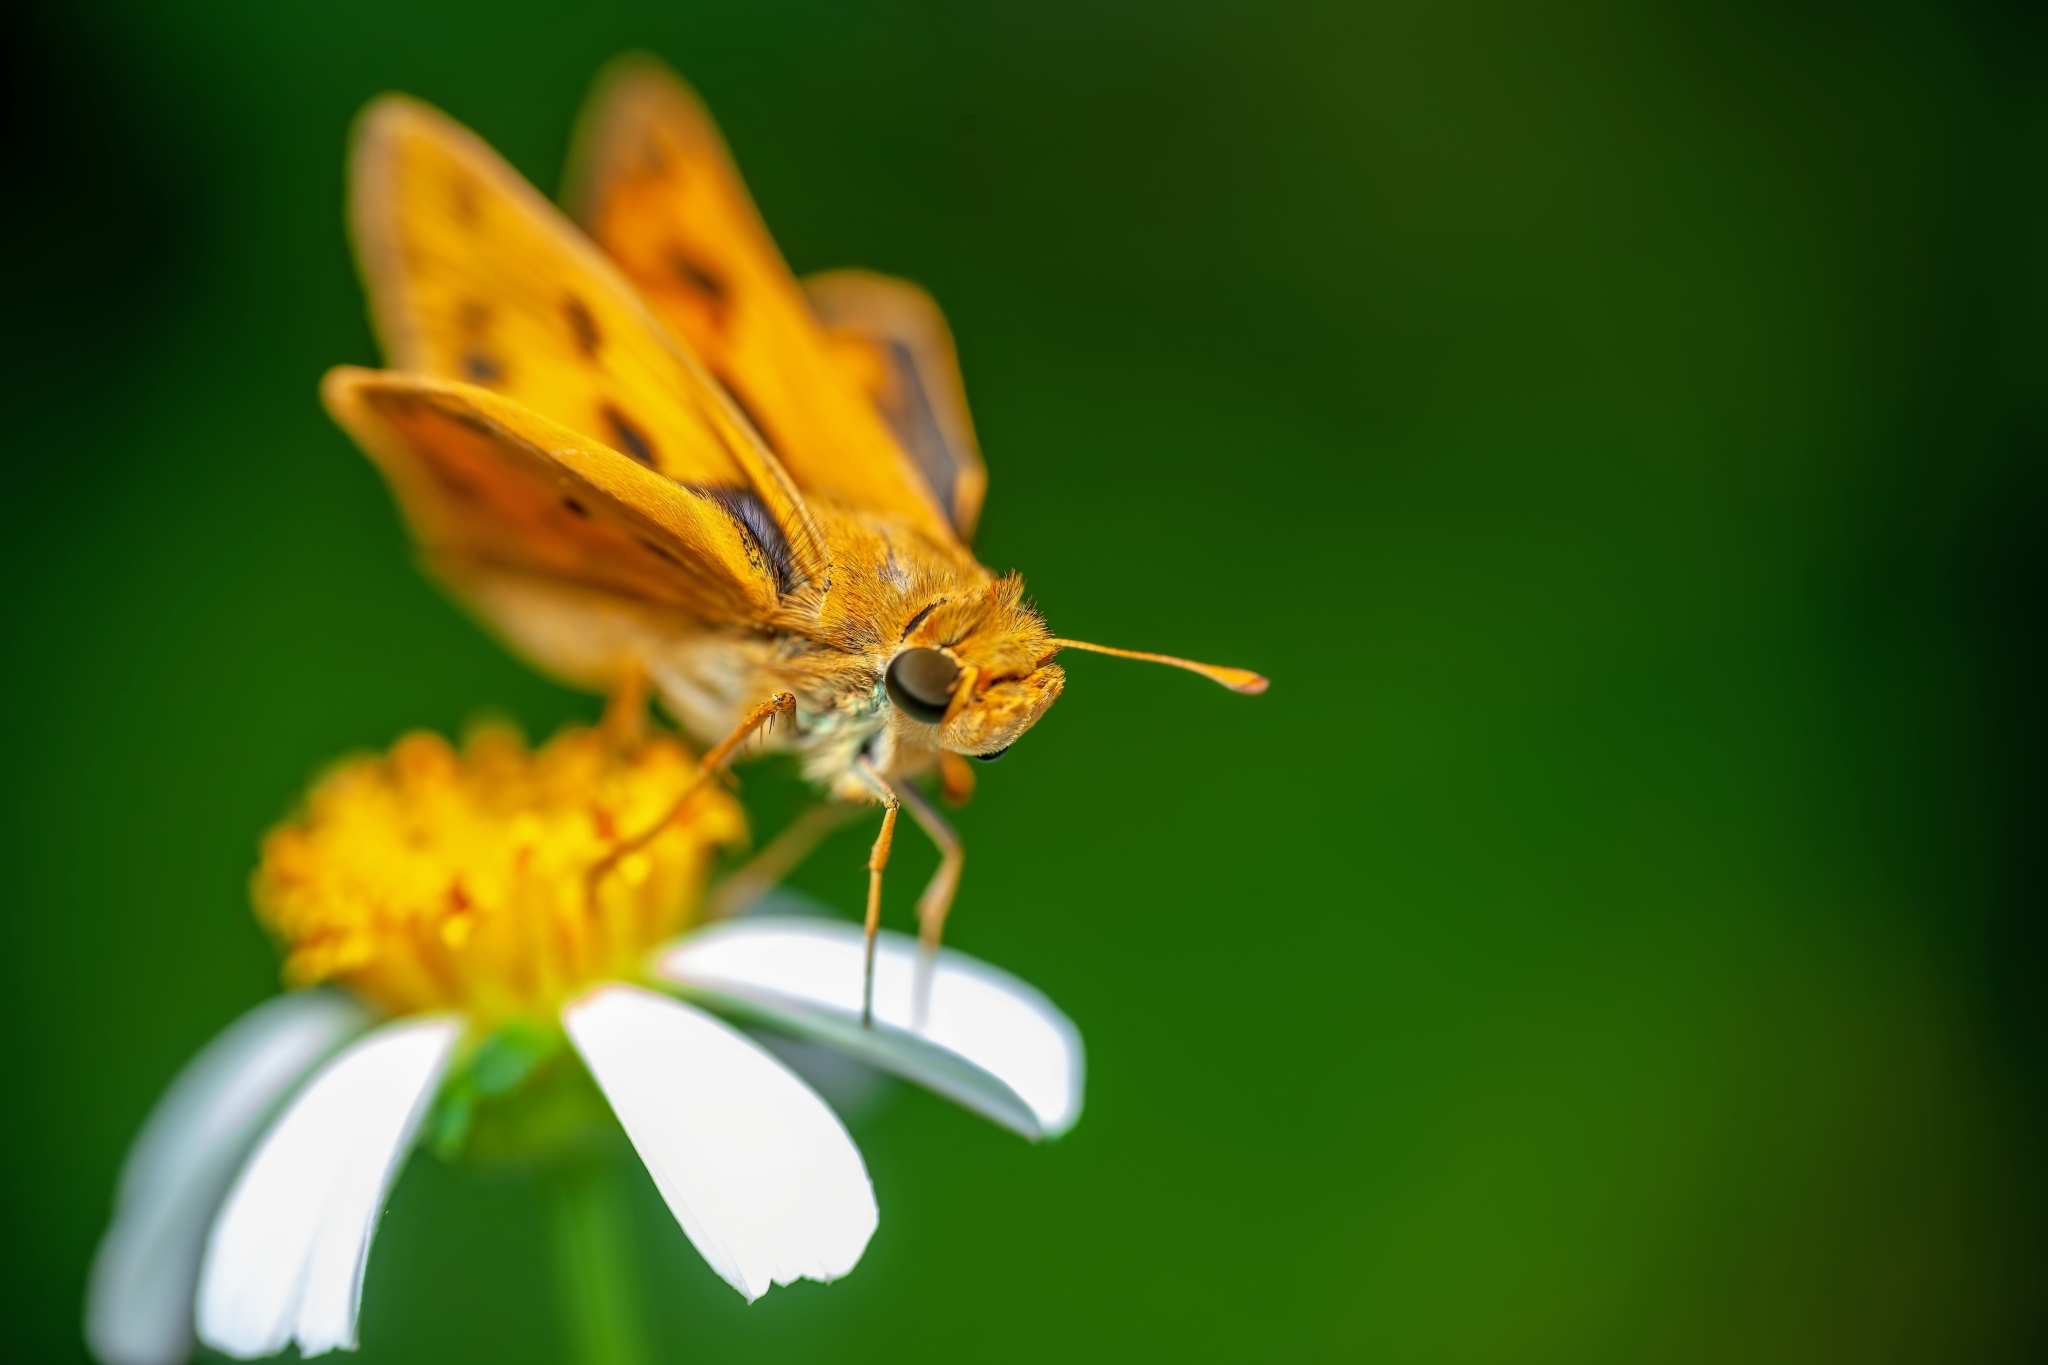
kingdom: Animalia
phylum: Arthropoda
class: Insecta
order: Lepidoptera
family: Hesperiidae
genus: Hylephila
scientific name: Hylephila phyleus
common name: Fiery skipper
